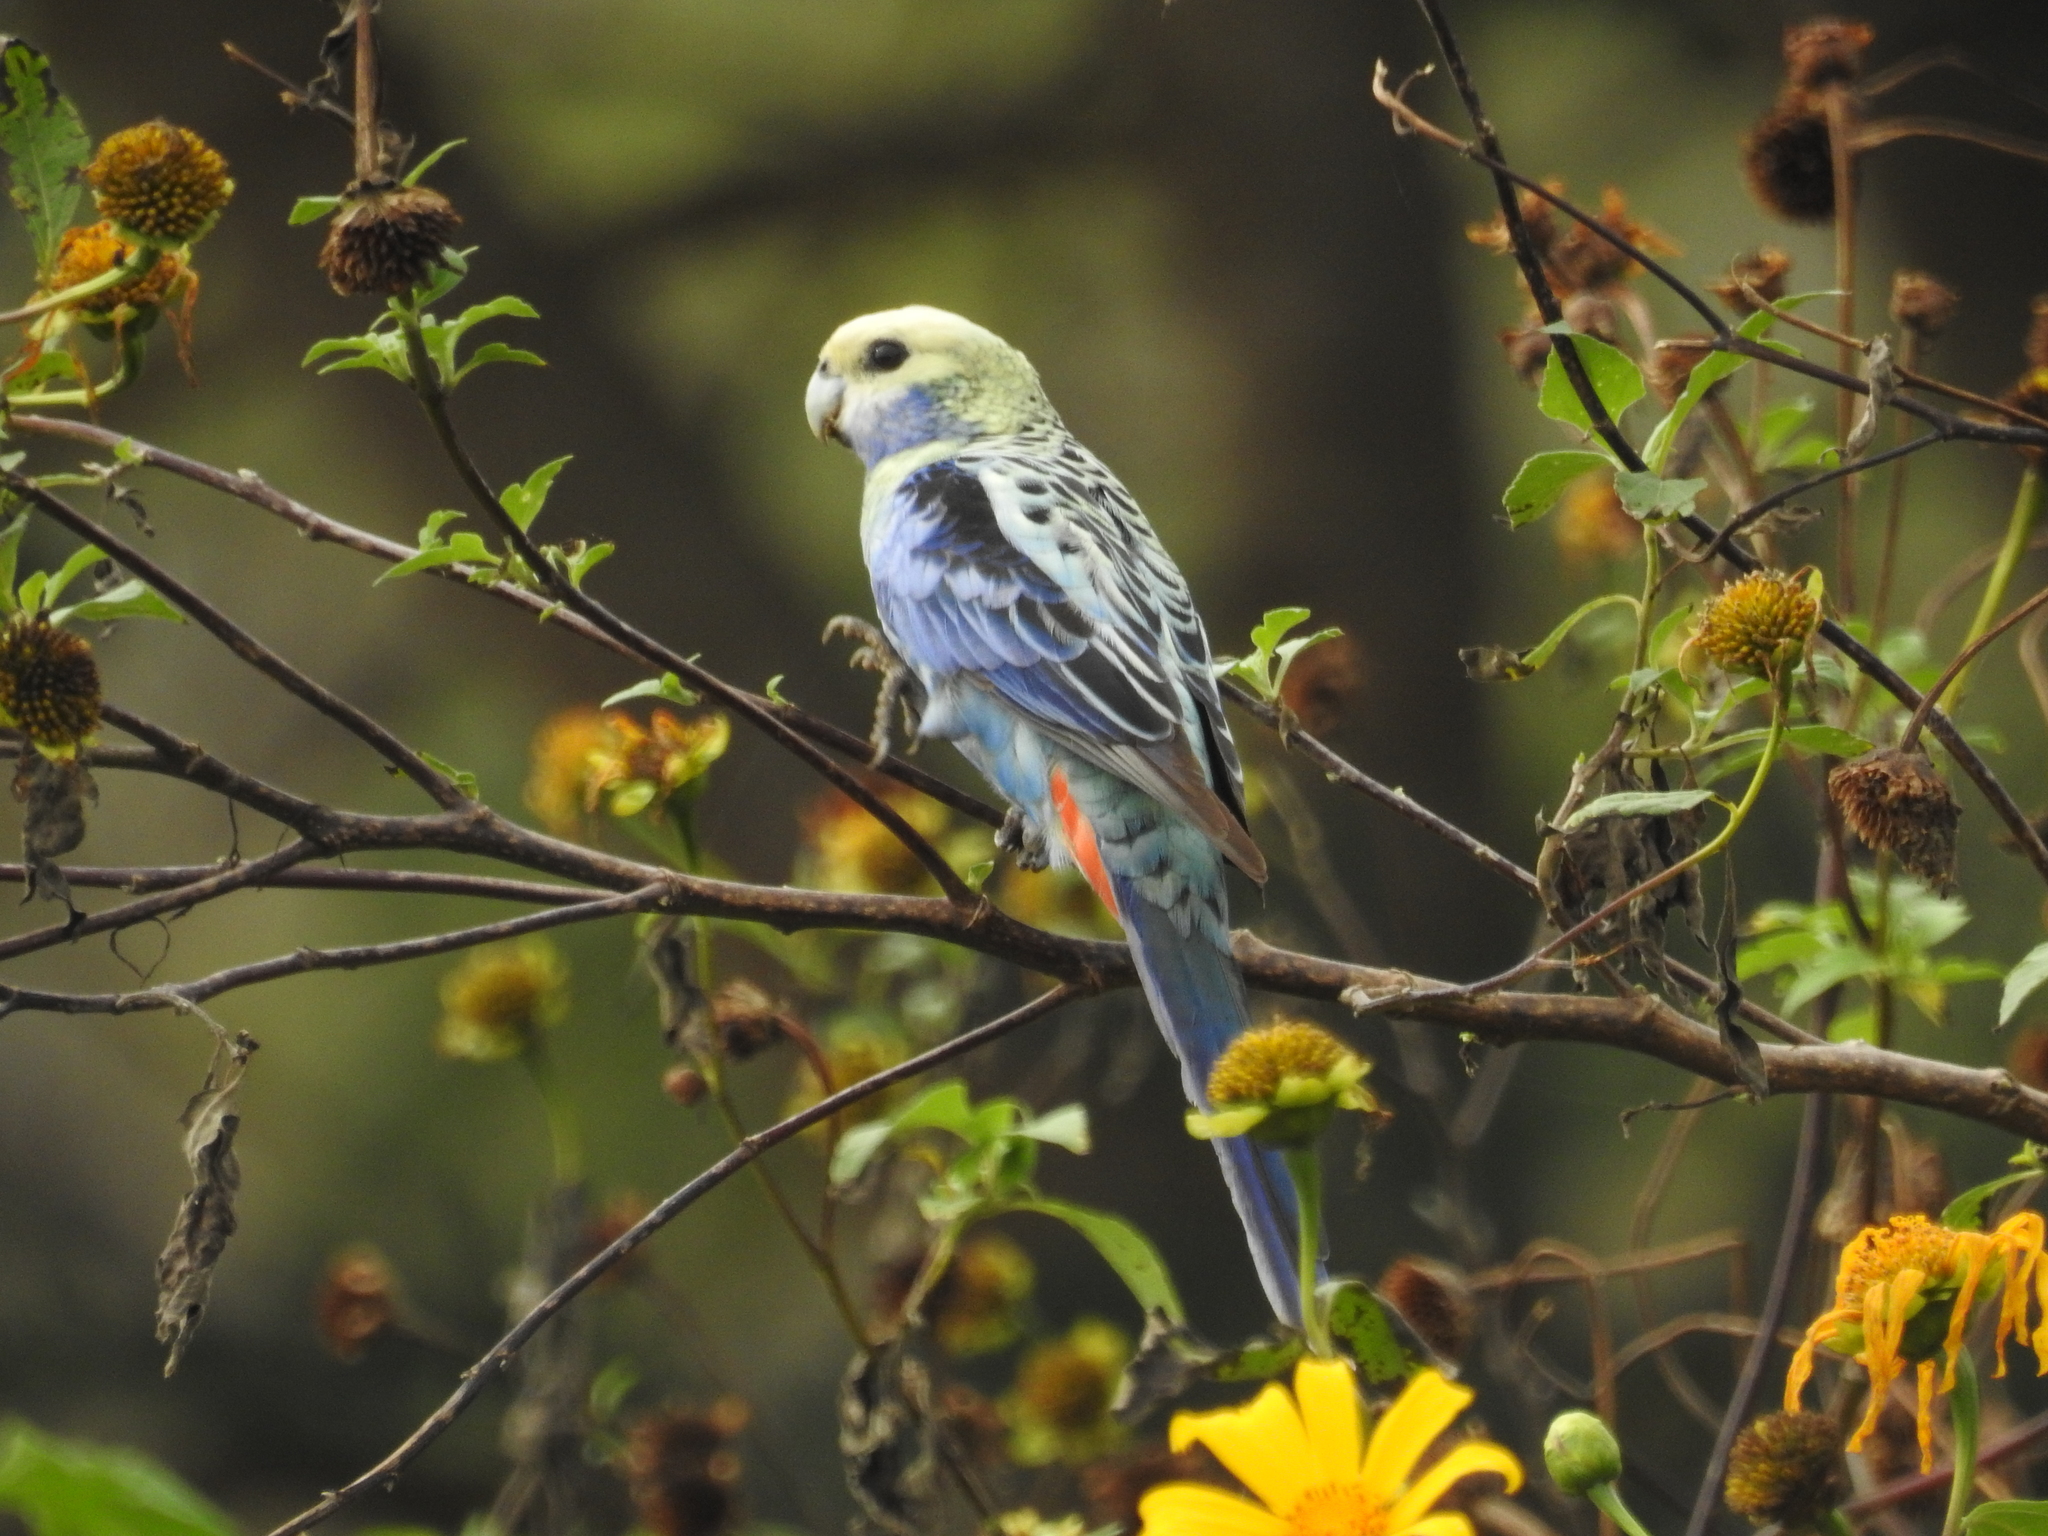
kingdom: Animalia
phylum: Chordata
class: Aves
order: Psittaciformes
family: Psittacidae
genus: Platycercus
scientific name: Platycercus adscitus
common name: Pale-headed rosella
